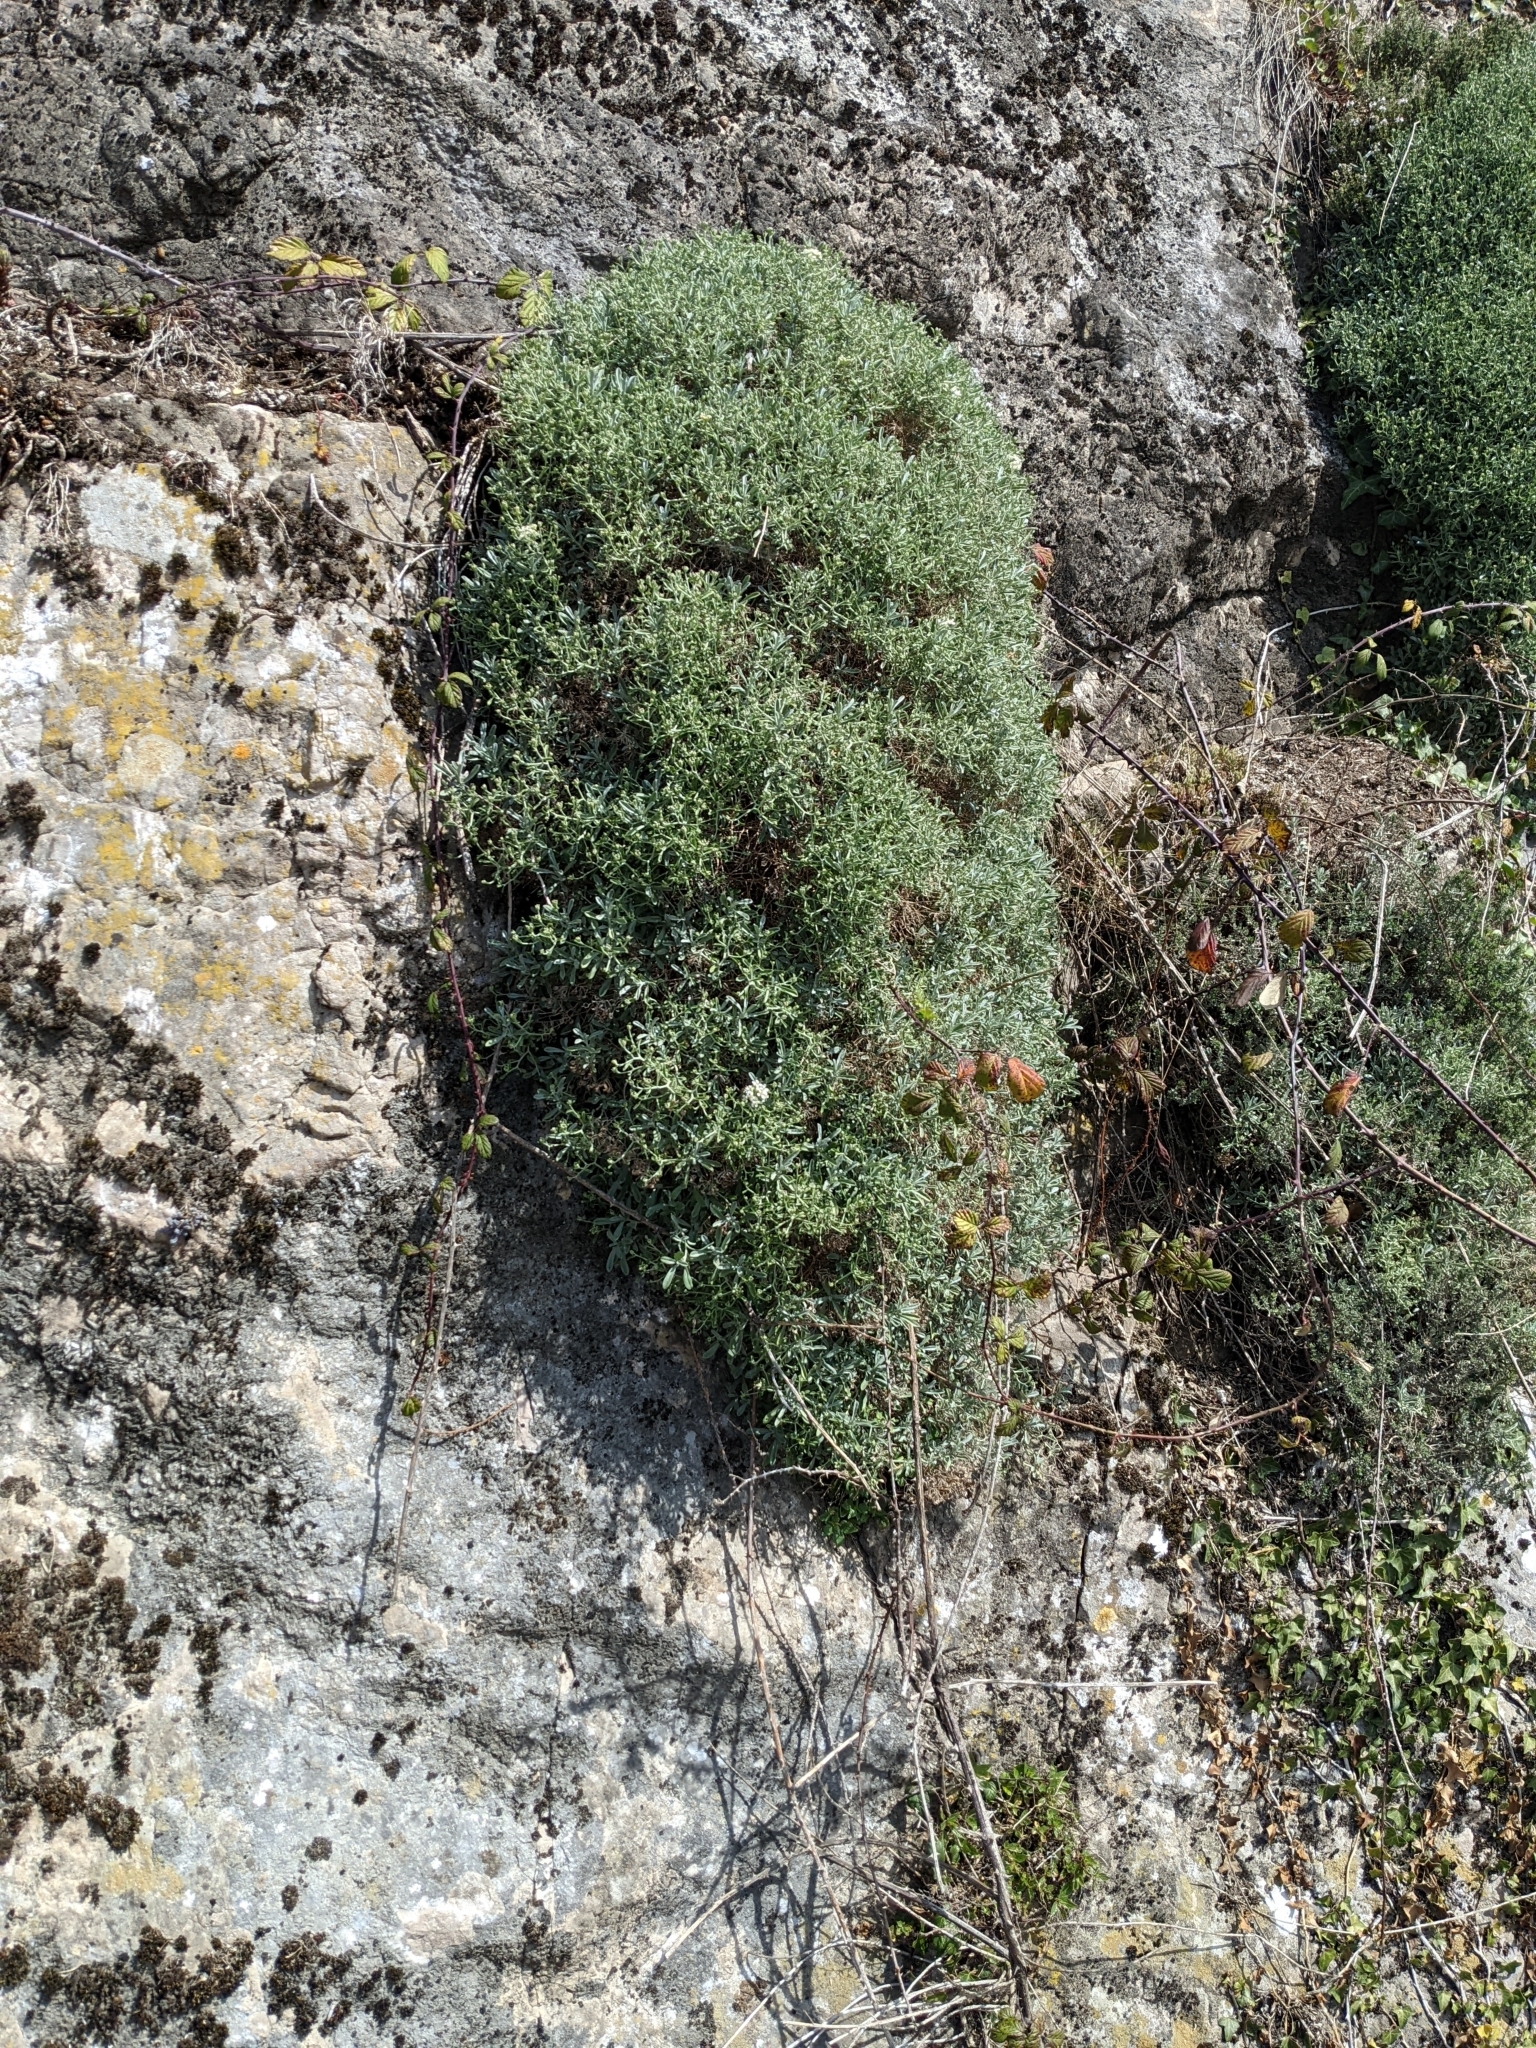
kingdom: Plantae
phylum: Tracheophyta
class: Magnoliopsida
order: Brassicales
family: Brassicaceae
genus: Hormathophylla
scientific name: Hormathophylla spinosa
